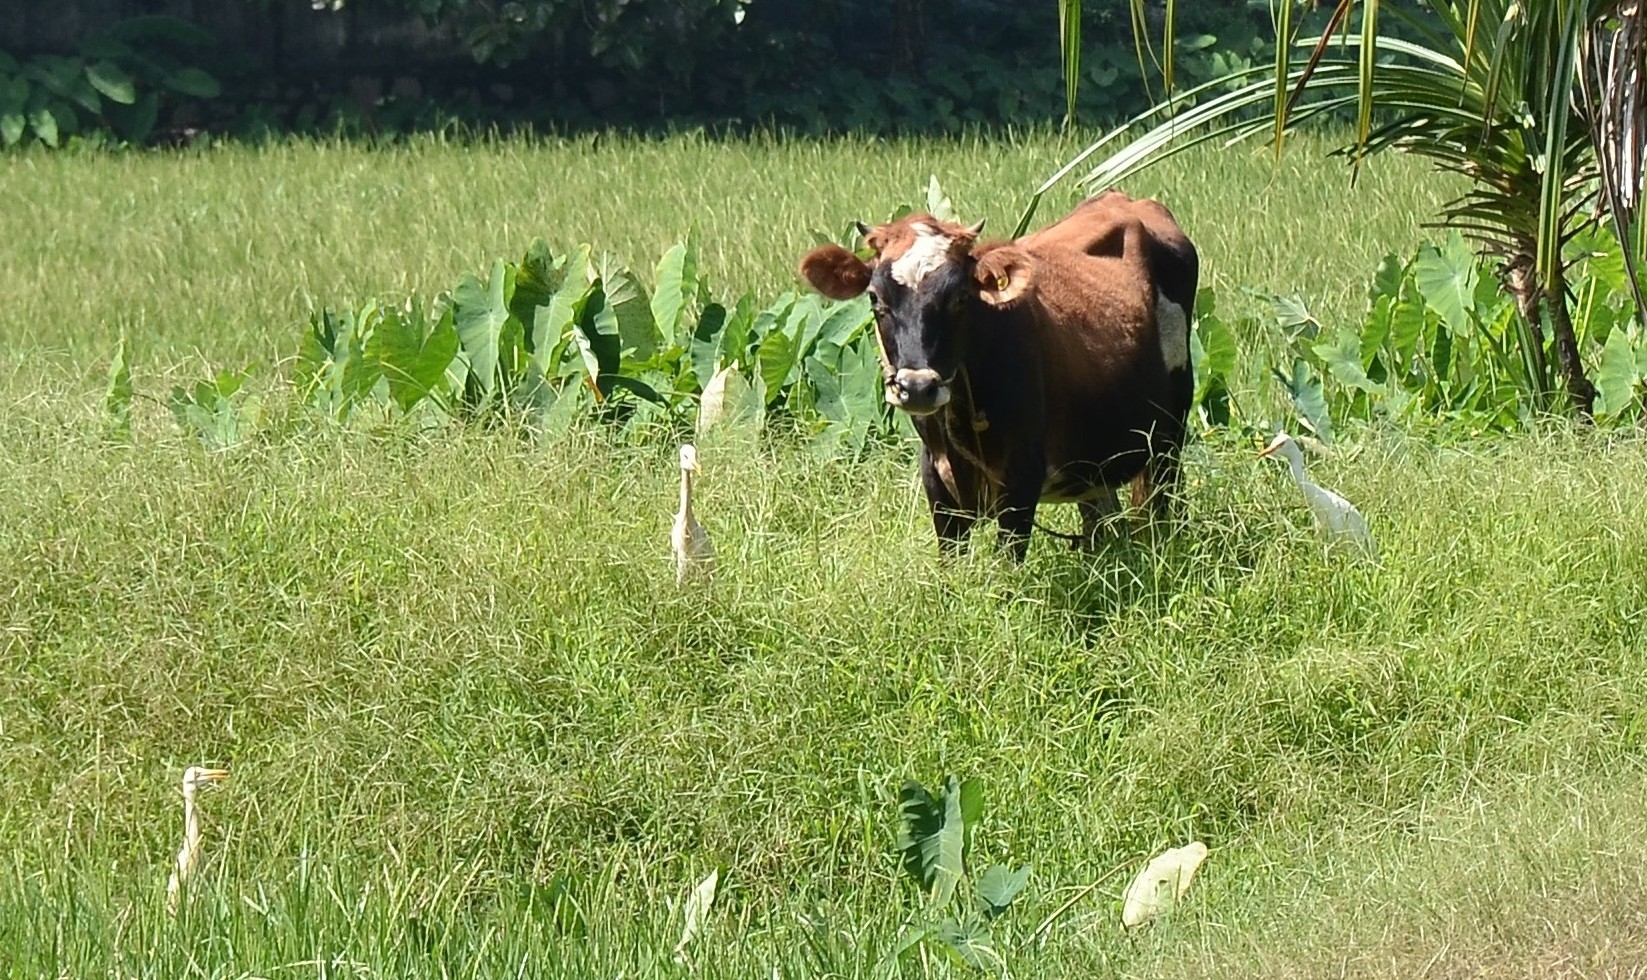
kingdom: Animalia
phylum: Chordata
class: Aves
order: Pelecaniformes
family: Ardeidae
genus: Bubulcus
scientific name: Bubulcus coromandus
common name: Eastern cattle egret
